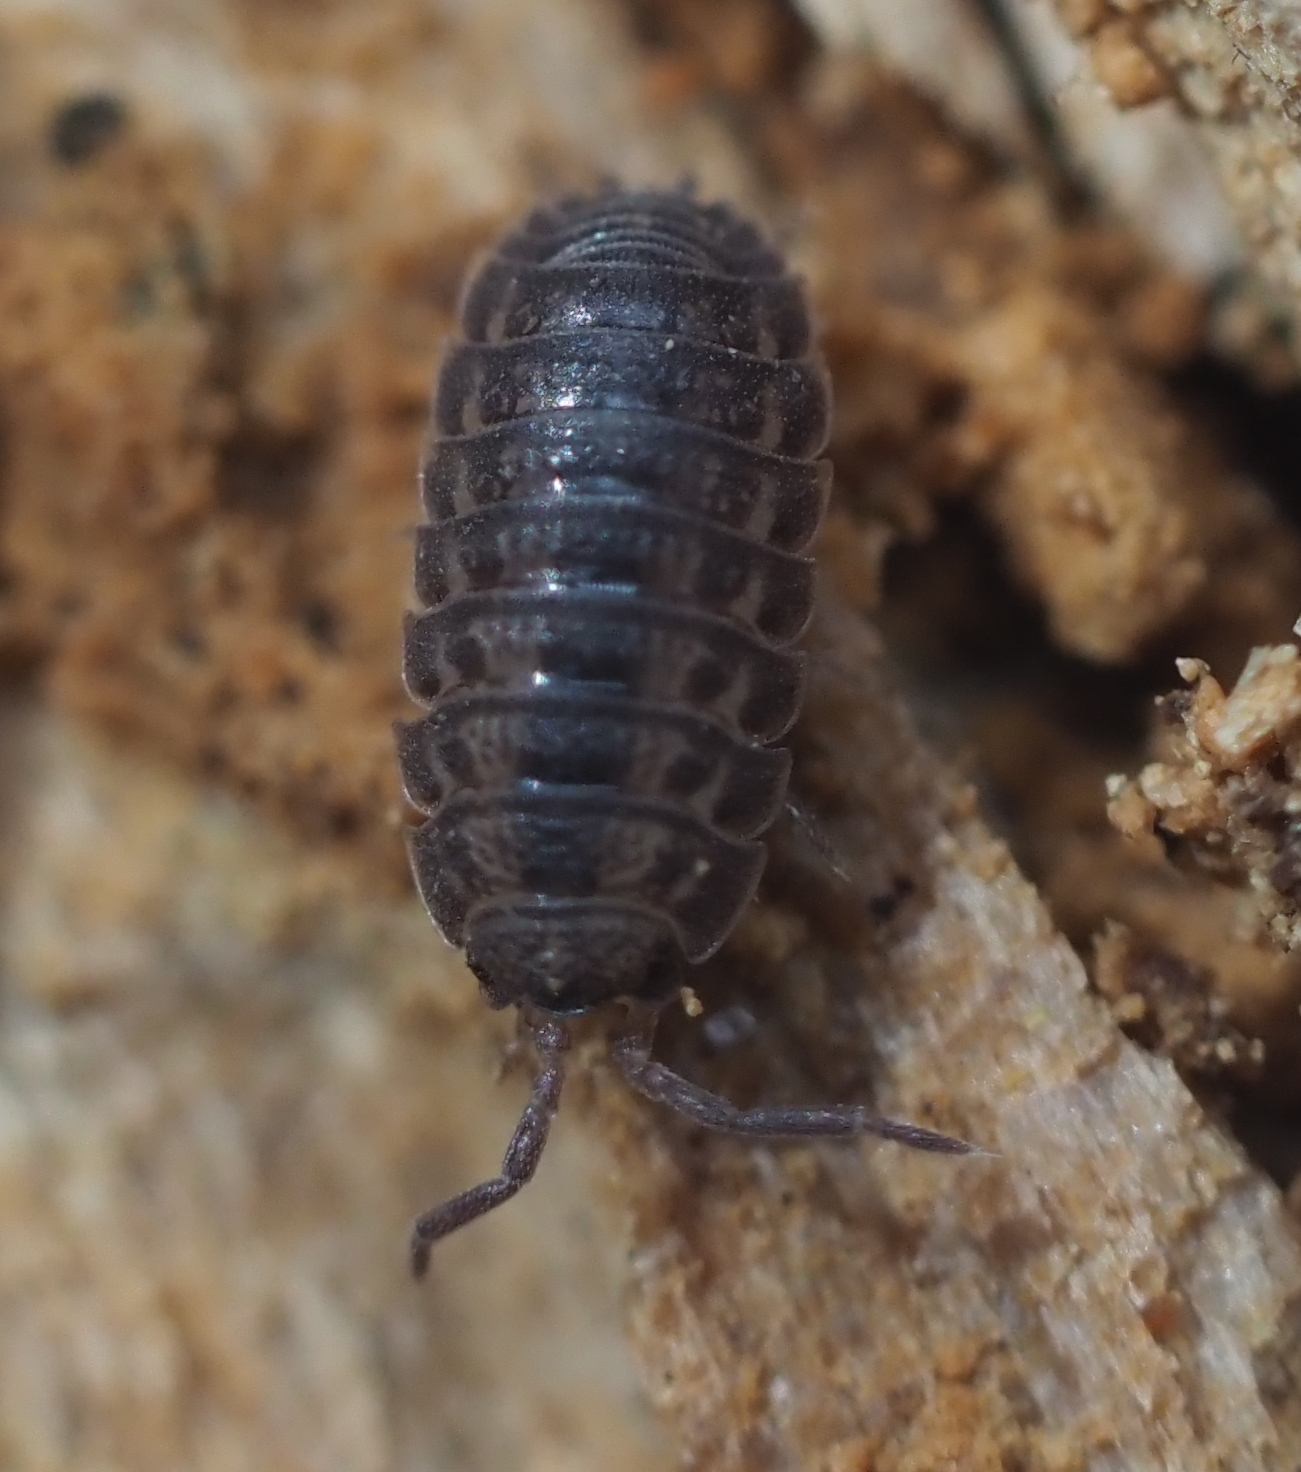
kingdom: Animalia
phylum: Arthropoda
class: Malacostraca
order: Isopoda
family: Trachelipodidae
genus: Trachelipus
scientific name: Trachelipus rathkii
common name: Isopod
